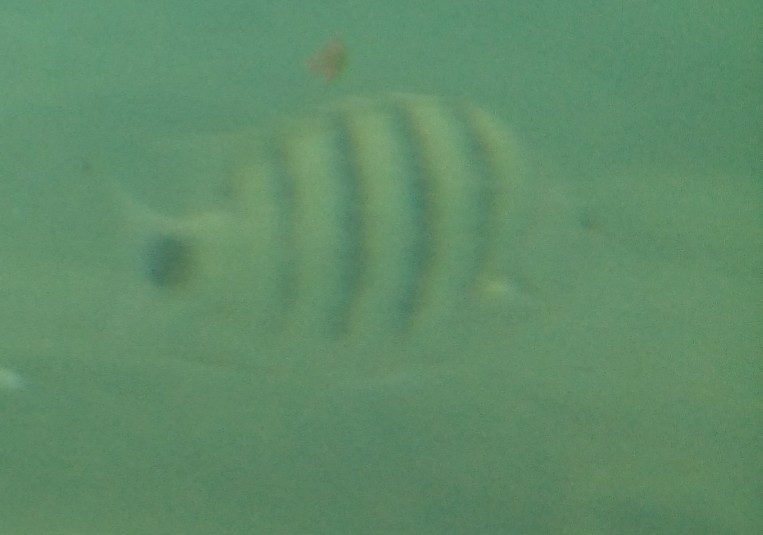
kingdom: Animalia
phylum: Chordata
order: Perciformes
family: Pomacentridae
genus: Abudefduf
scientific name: Abudefduf lorenzi
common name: Black-tail sergeant
